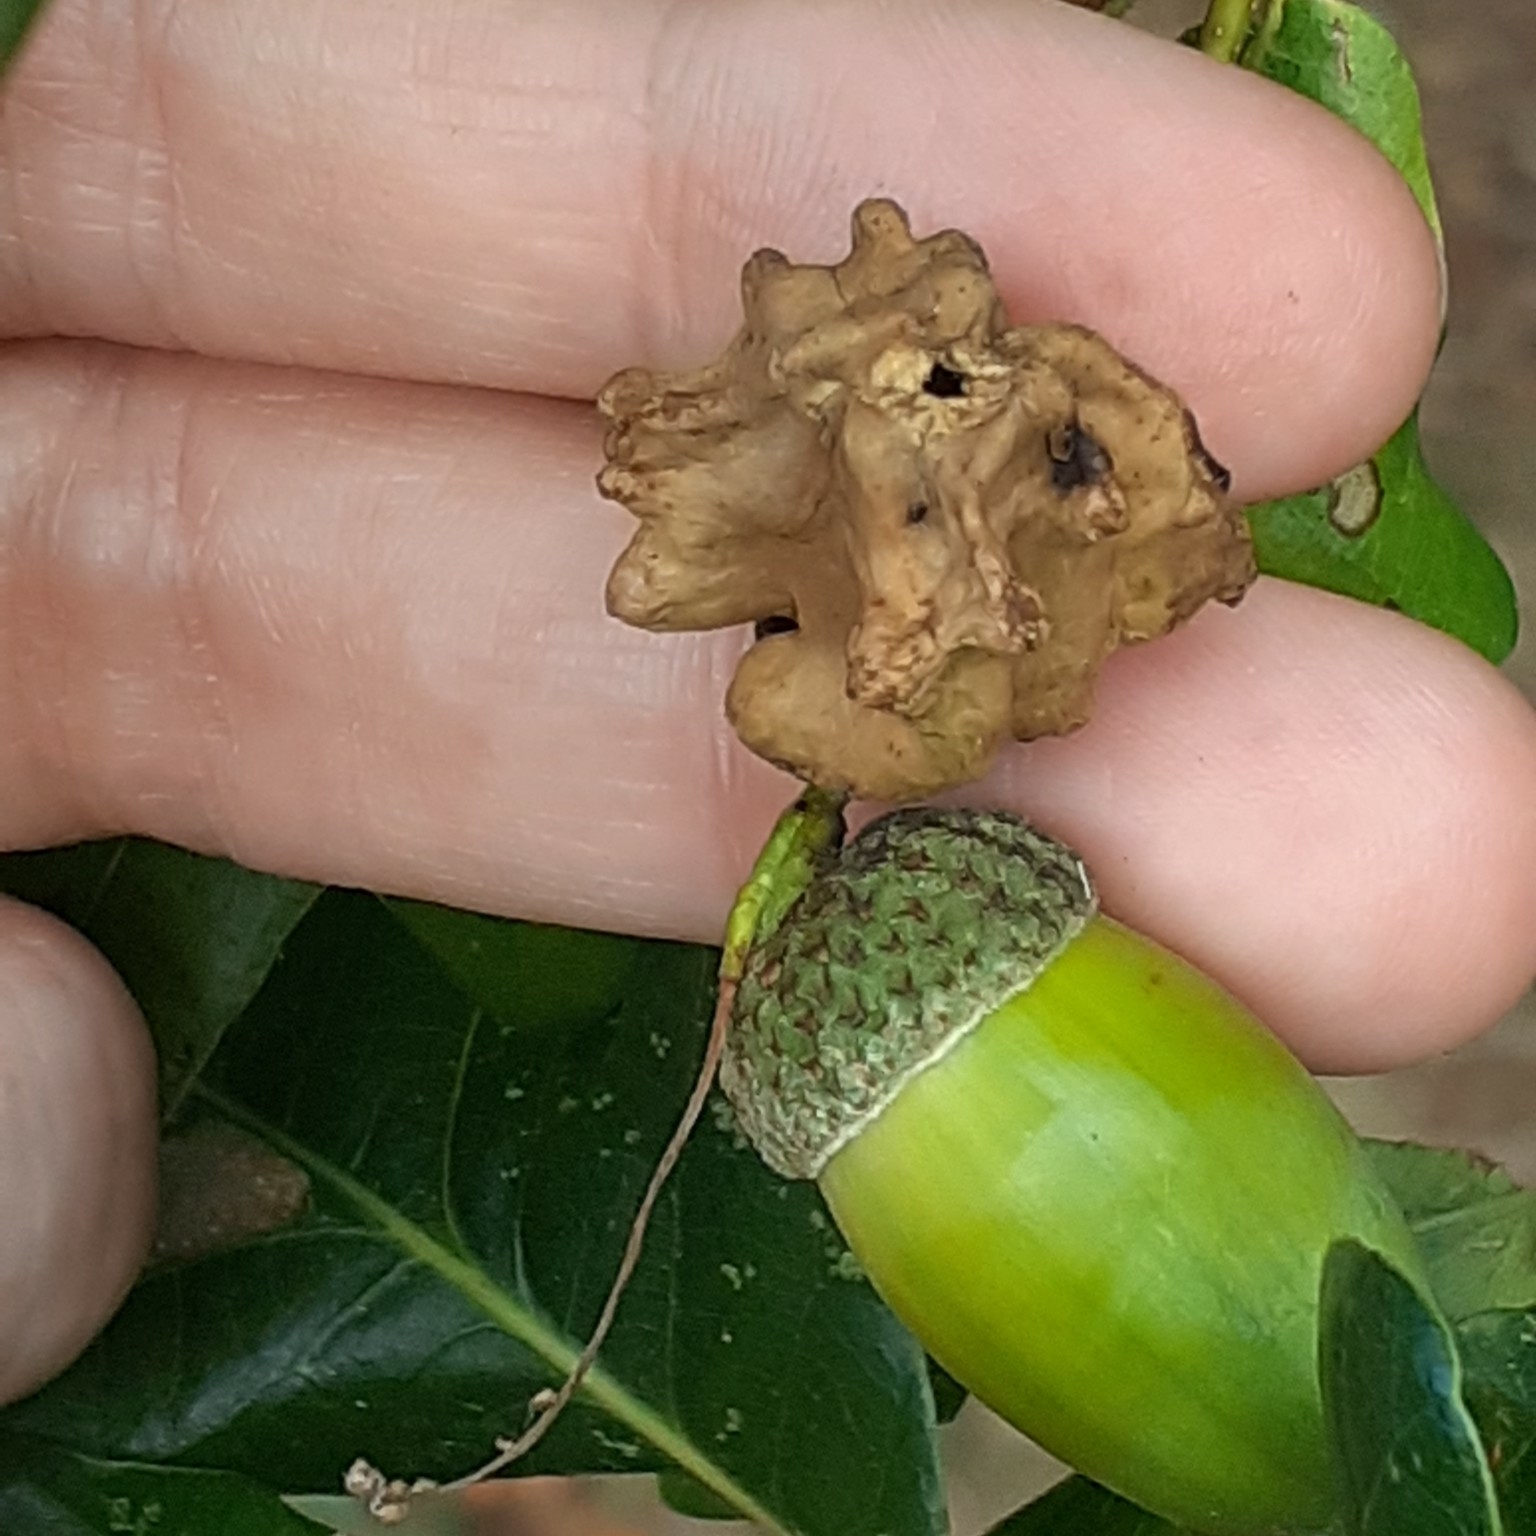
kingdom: Animalia
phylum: Arthropoda
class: Insecta
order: Hymenoptera
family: Cynipidae
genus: Andricus
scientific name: Andricus quercuscalicis
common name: Knopper gall
